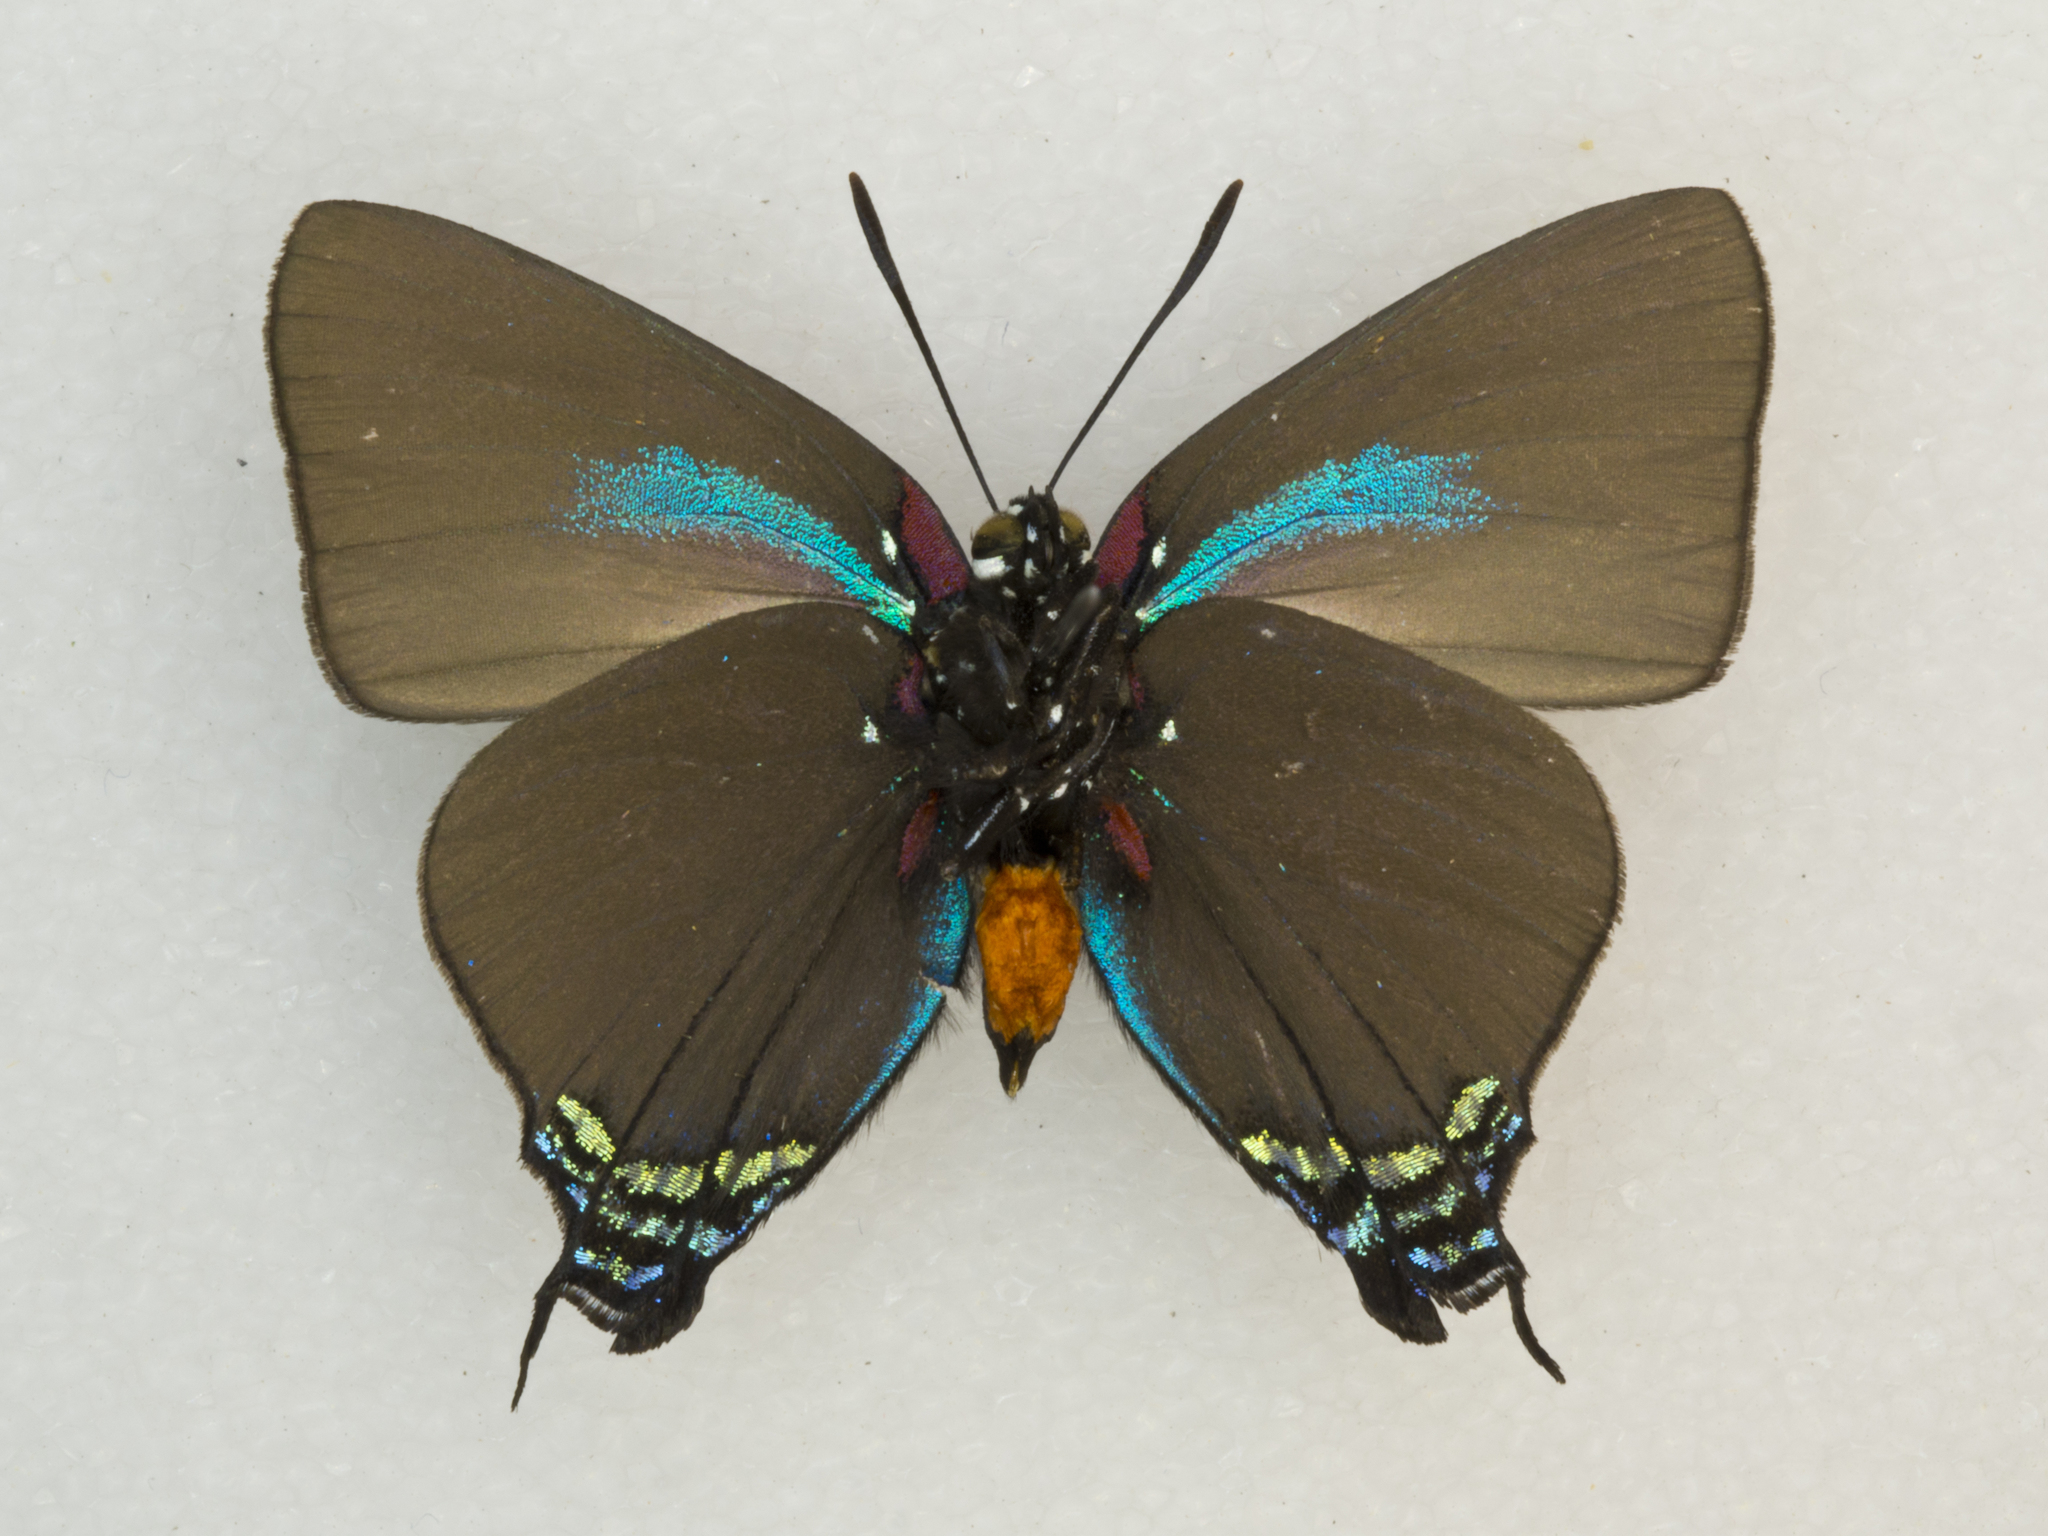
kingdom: Animalia
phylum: Arthropoda
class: Insecta
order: Lepidoptera
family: Lycaenidae
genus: Atlides
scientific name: Atlides halesus
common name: Great purple hairstreak
